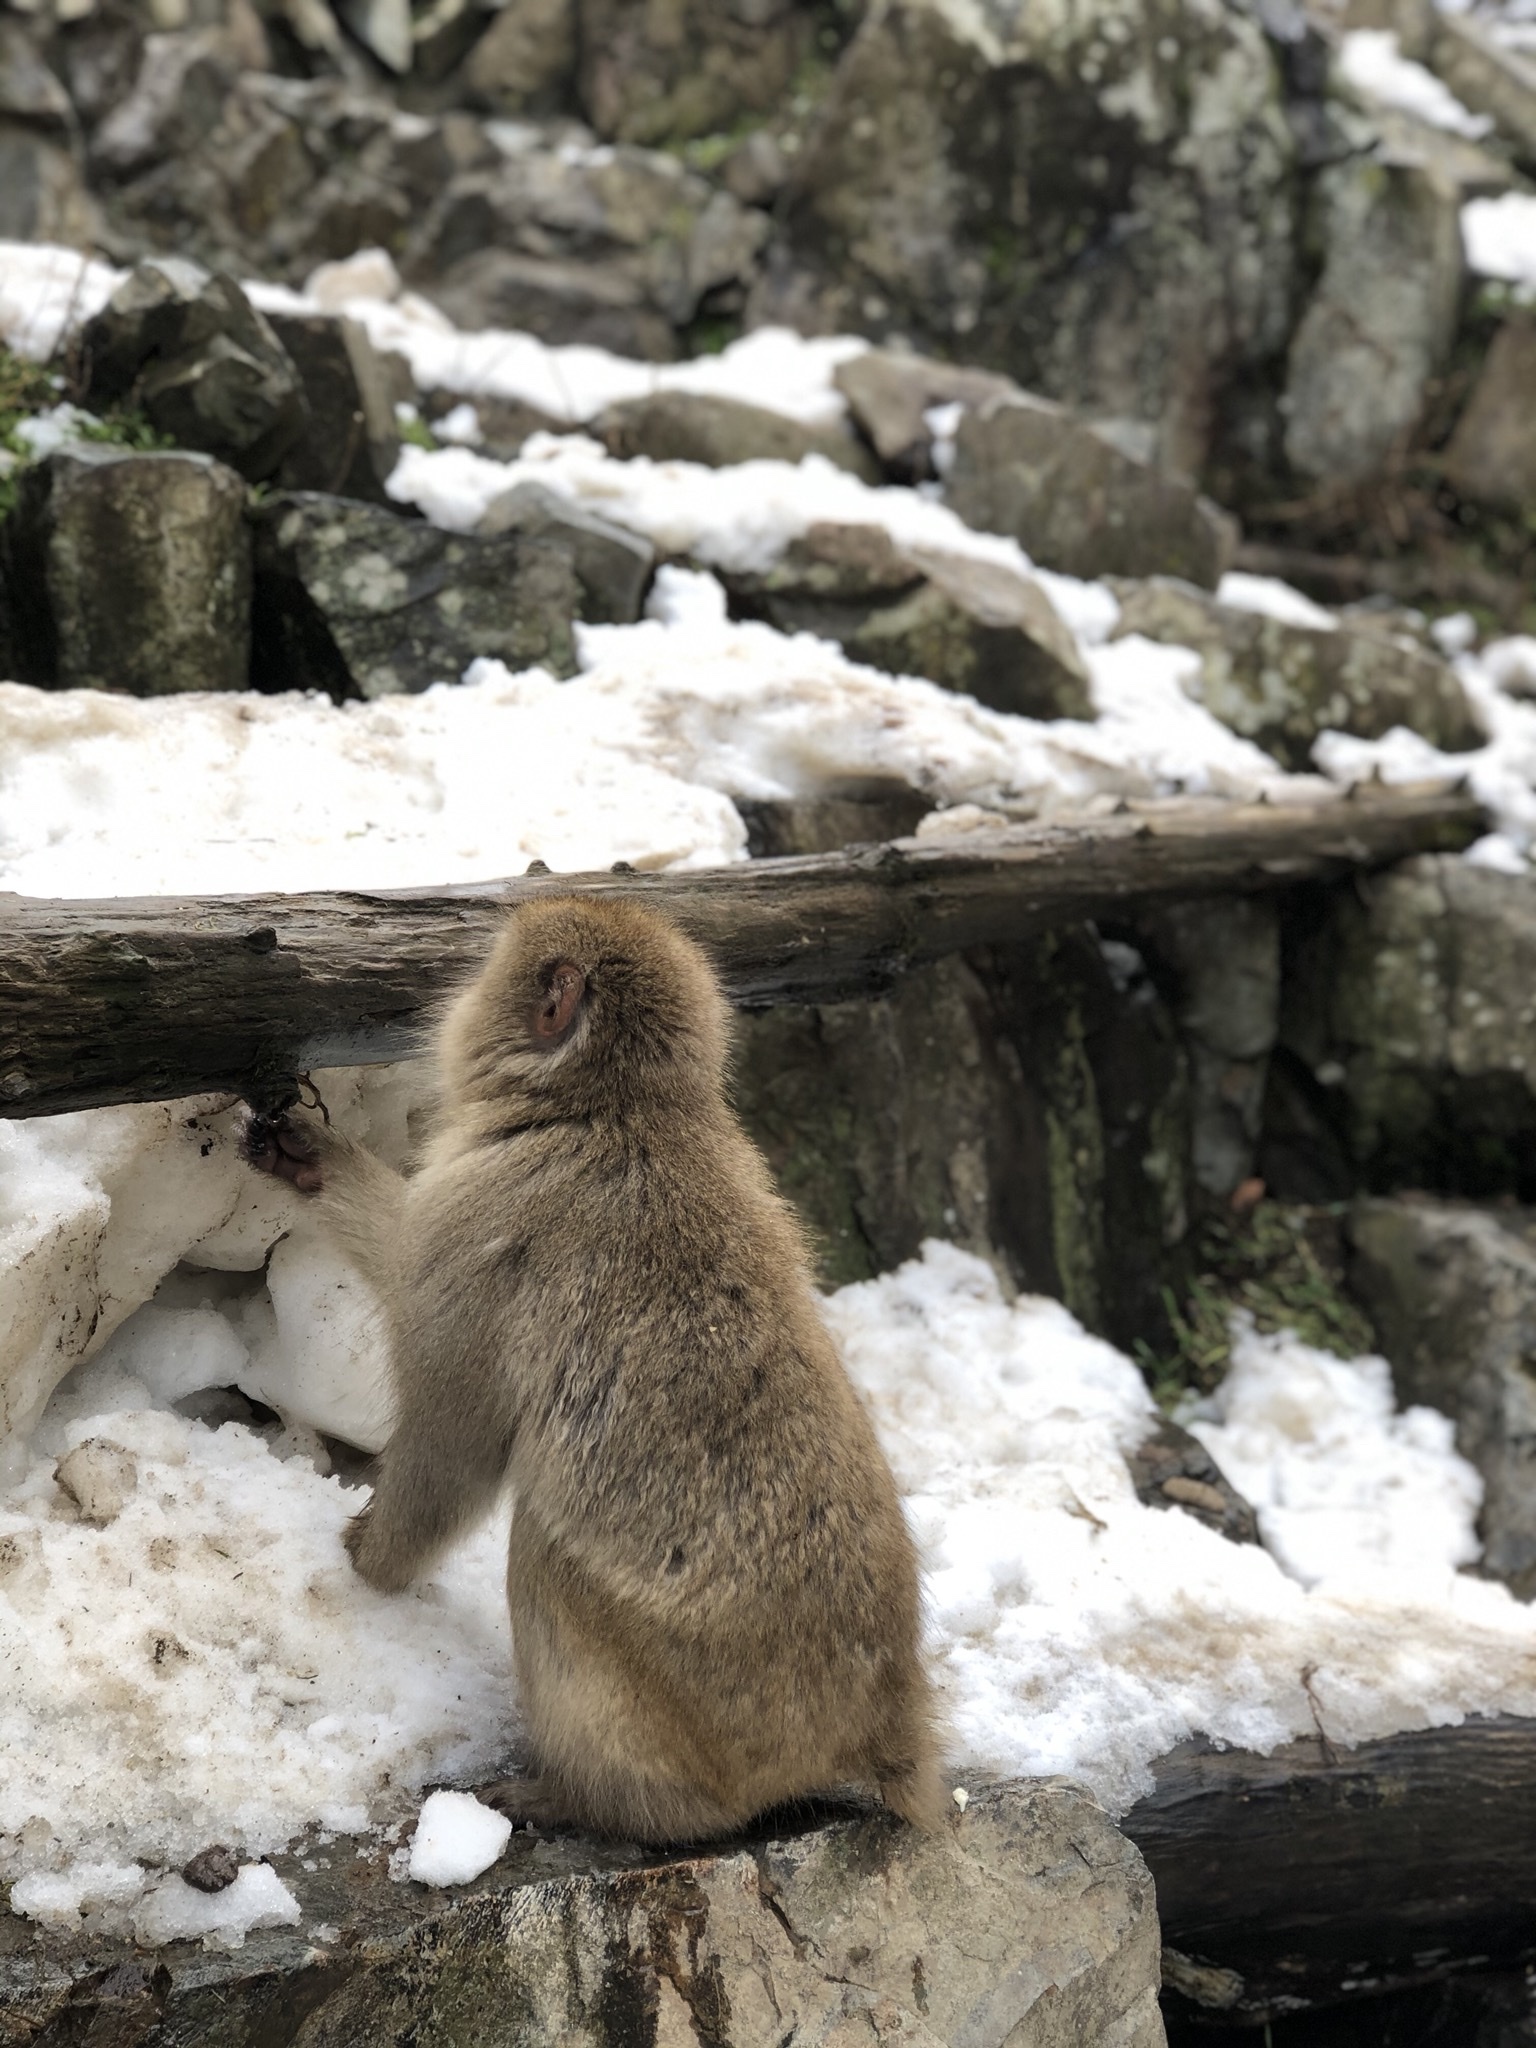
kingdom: Animalia
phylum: Chordata
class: Mammalia
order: Primates
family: Cercopithecidae
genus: Macaca
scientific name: Macaca fuscata
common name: Japanese macaque
